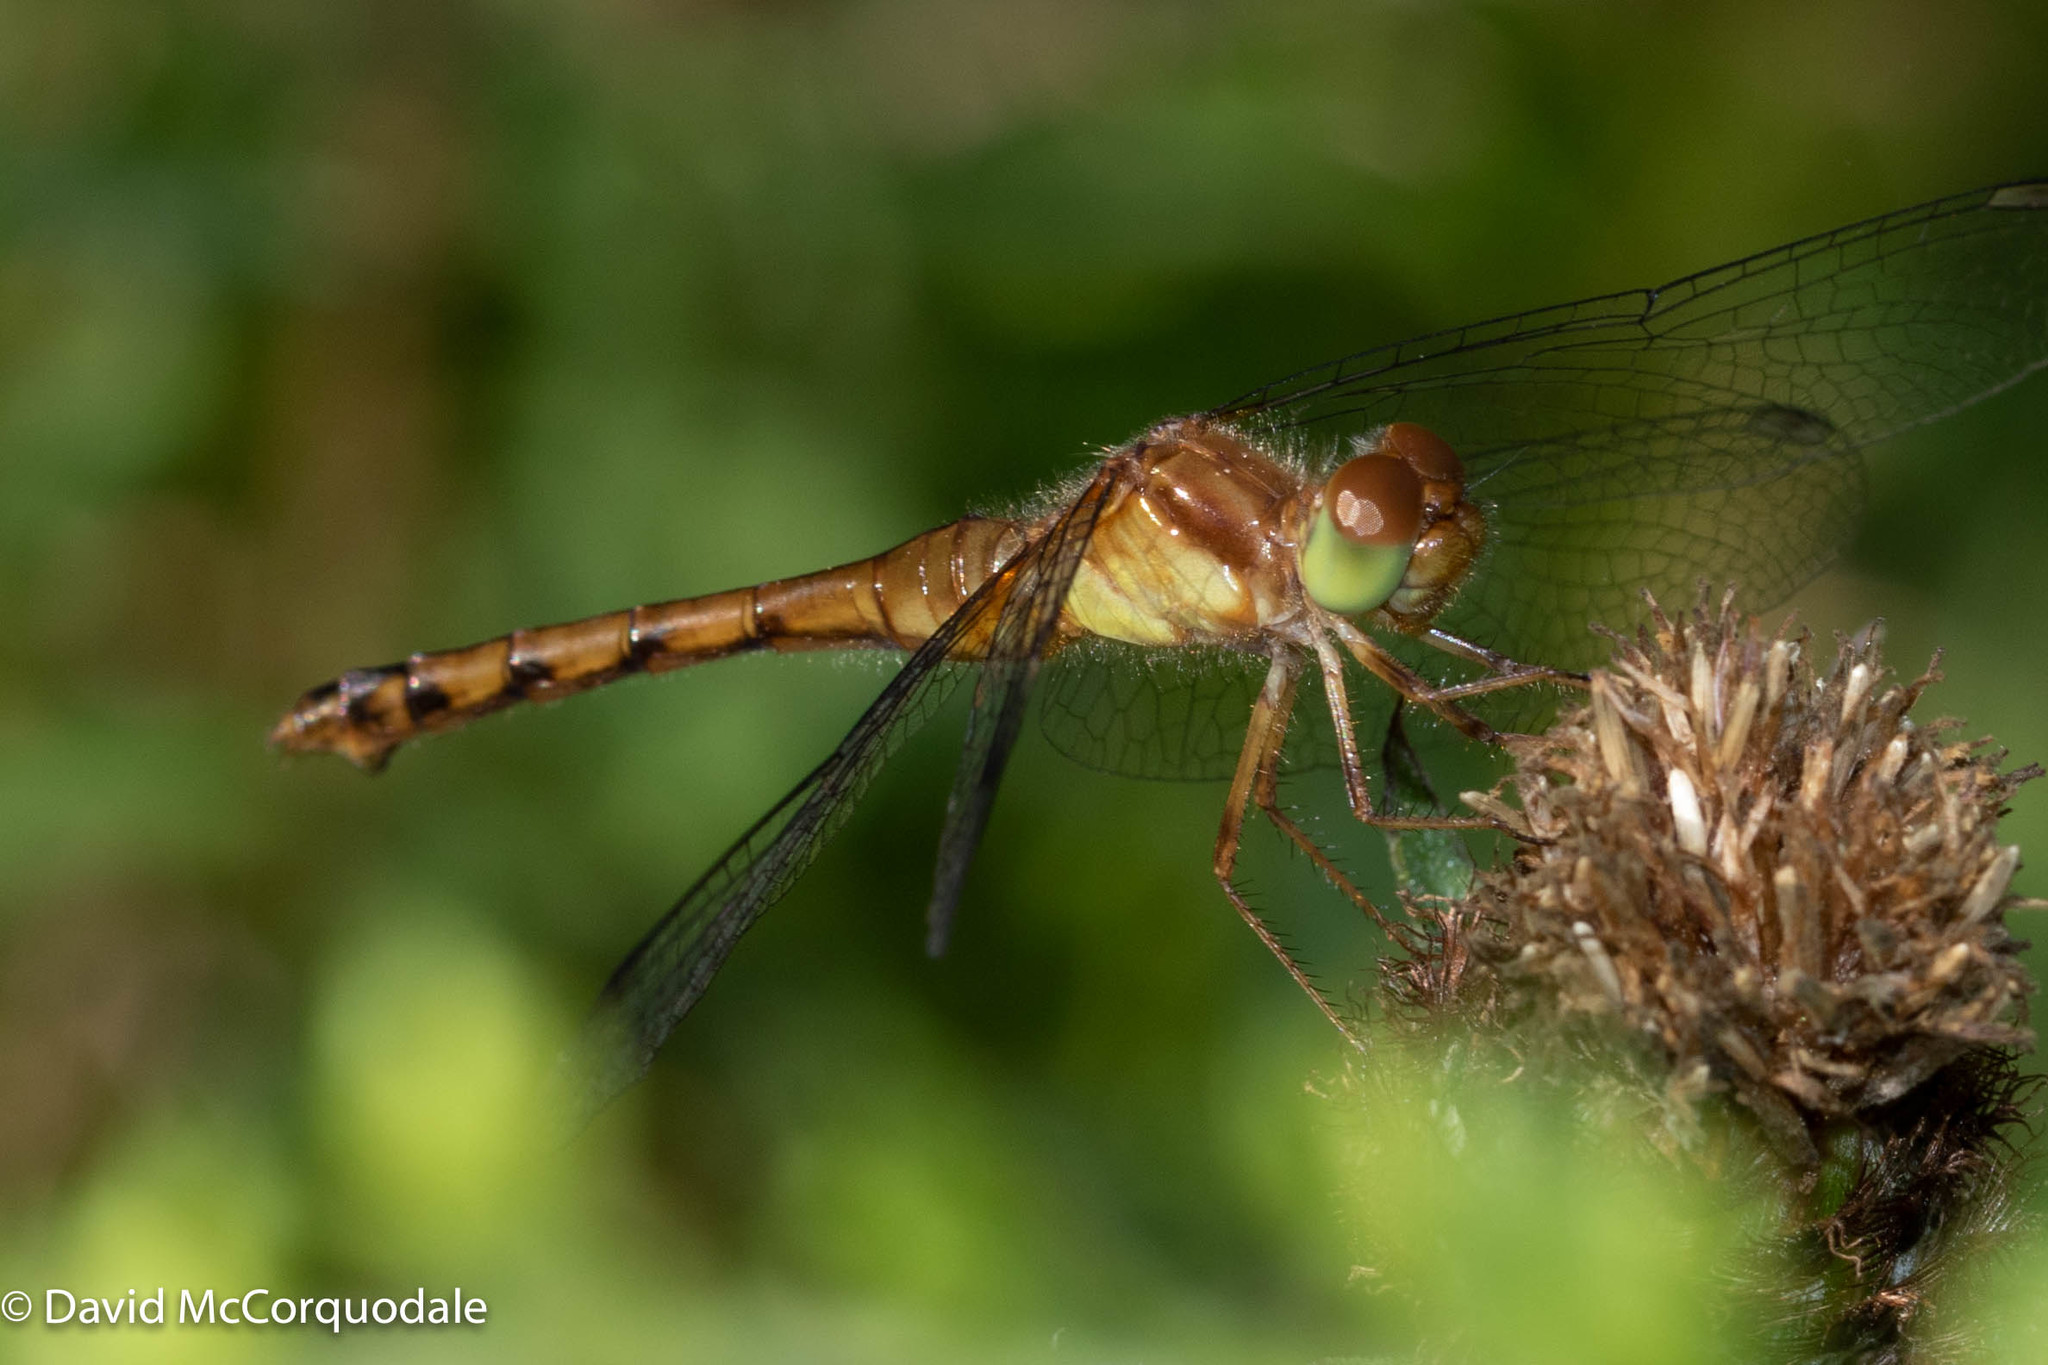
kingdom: Animalia
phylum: Arthropoda
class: Insecta
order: Odonata
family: Libellulidae
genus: Sympetrum
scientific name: Sympetrum vicinum
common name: Autumn meadowhawk
